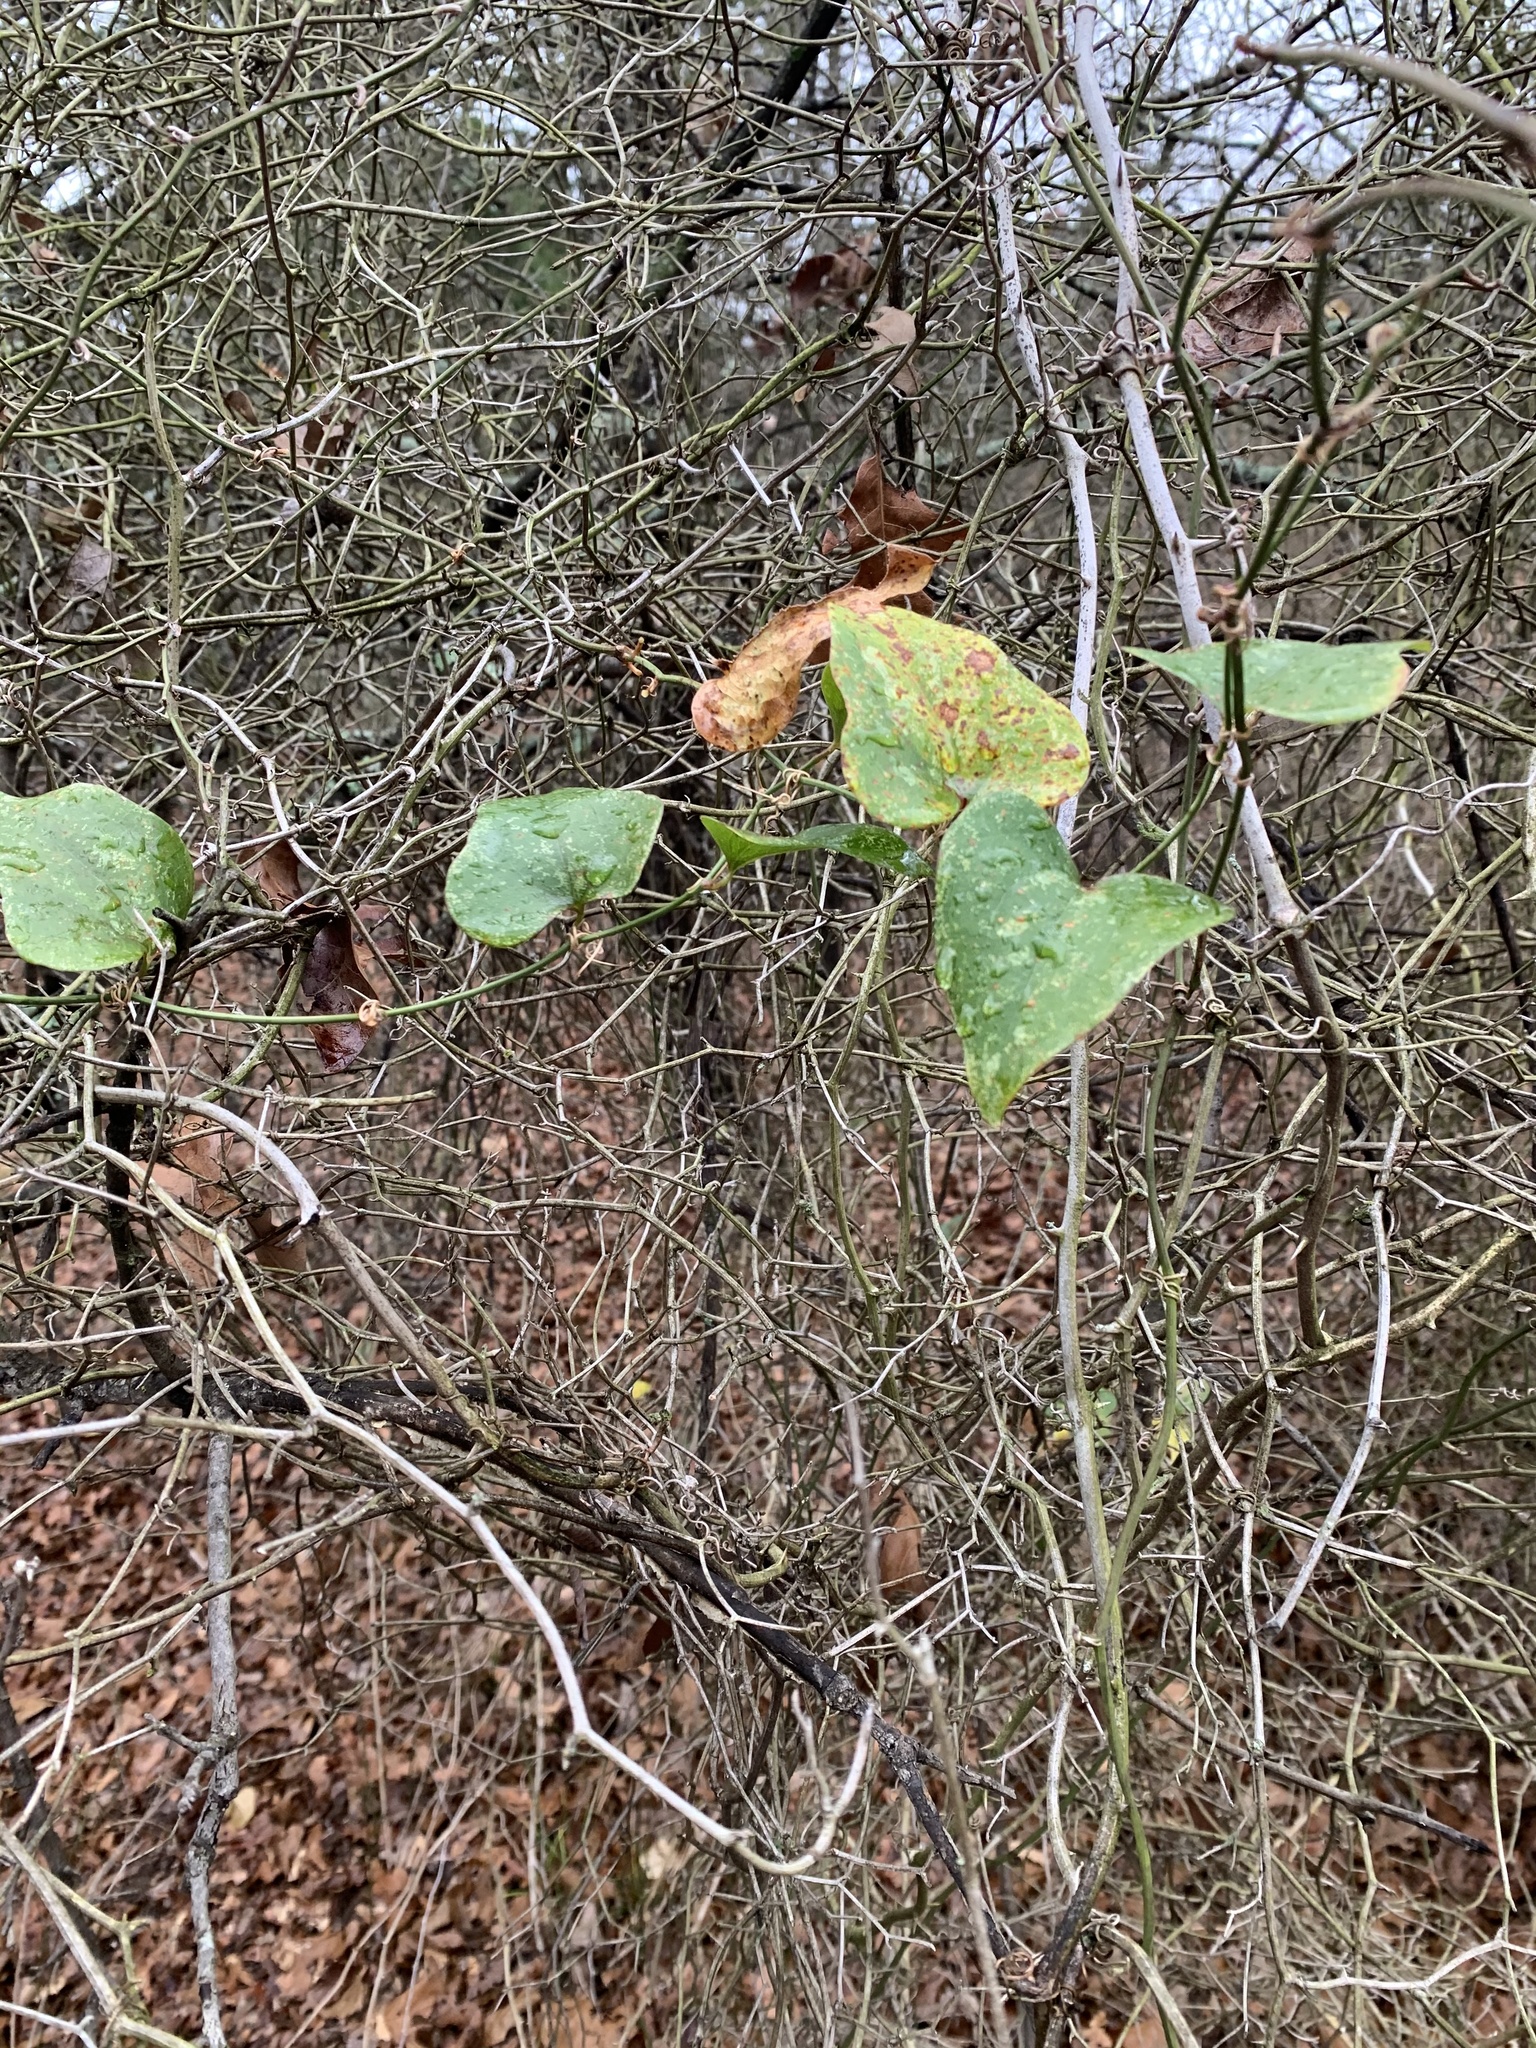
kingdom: Plantae
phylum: Tracheophyta
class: Liliopsida
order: Liliales
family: Smilacaceae
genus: Smilax
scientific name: Smilax bona-nox
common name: Catbrier
